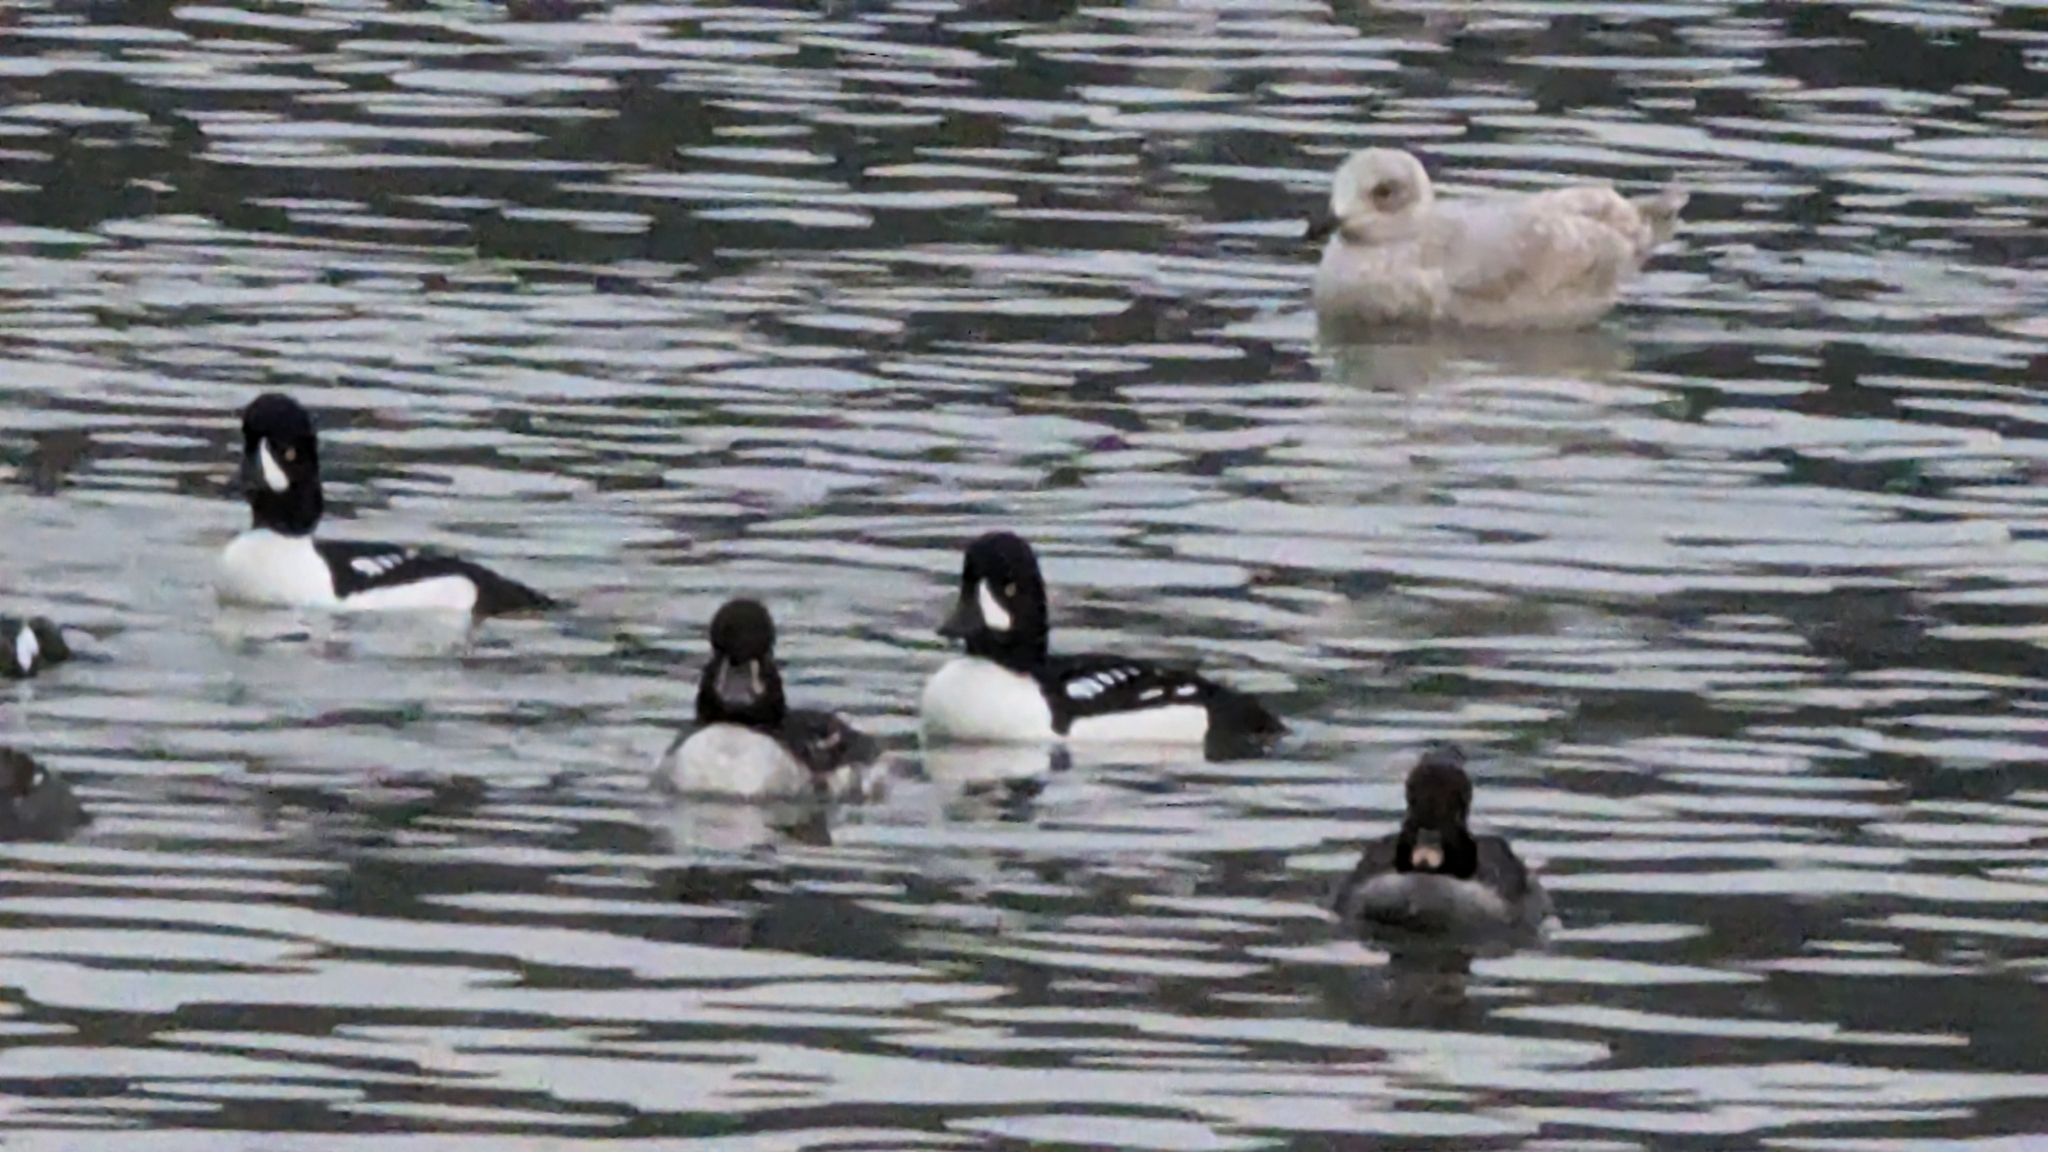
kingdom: Animalia
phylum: Chordata
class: Aves
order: Anseriformes
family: Anatidae
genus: Bucephala
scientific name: Bucephala islandica
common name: Barrow's goldeneye
